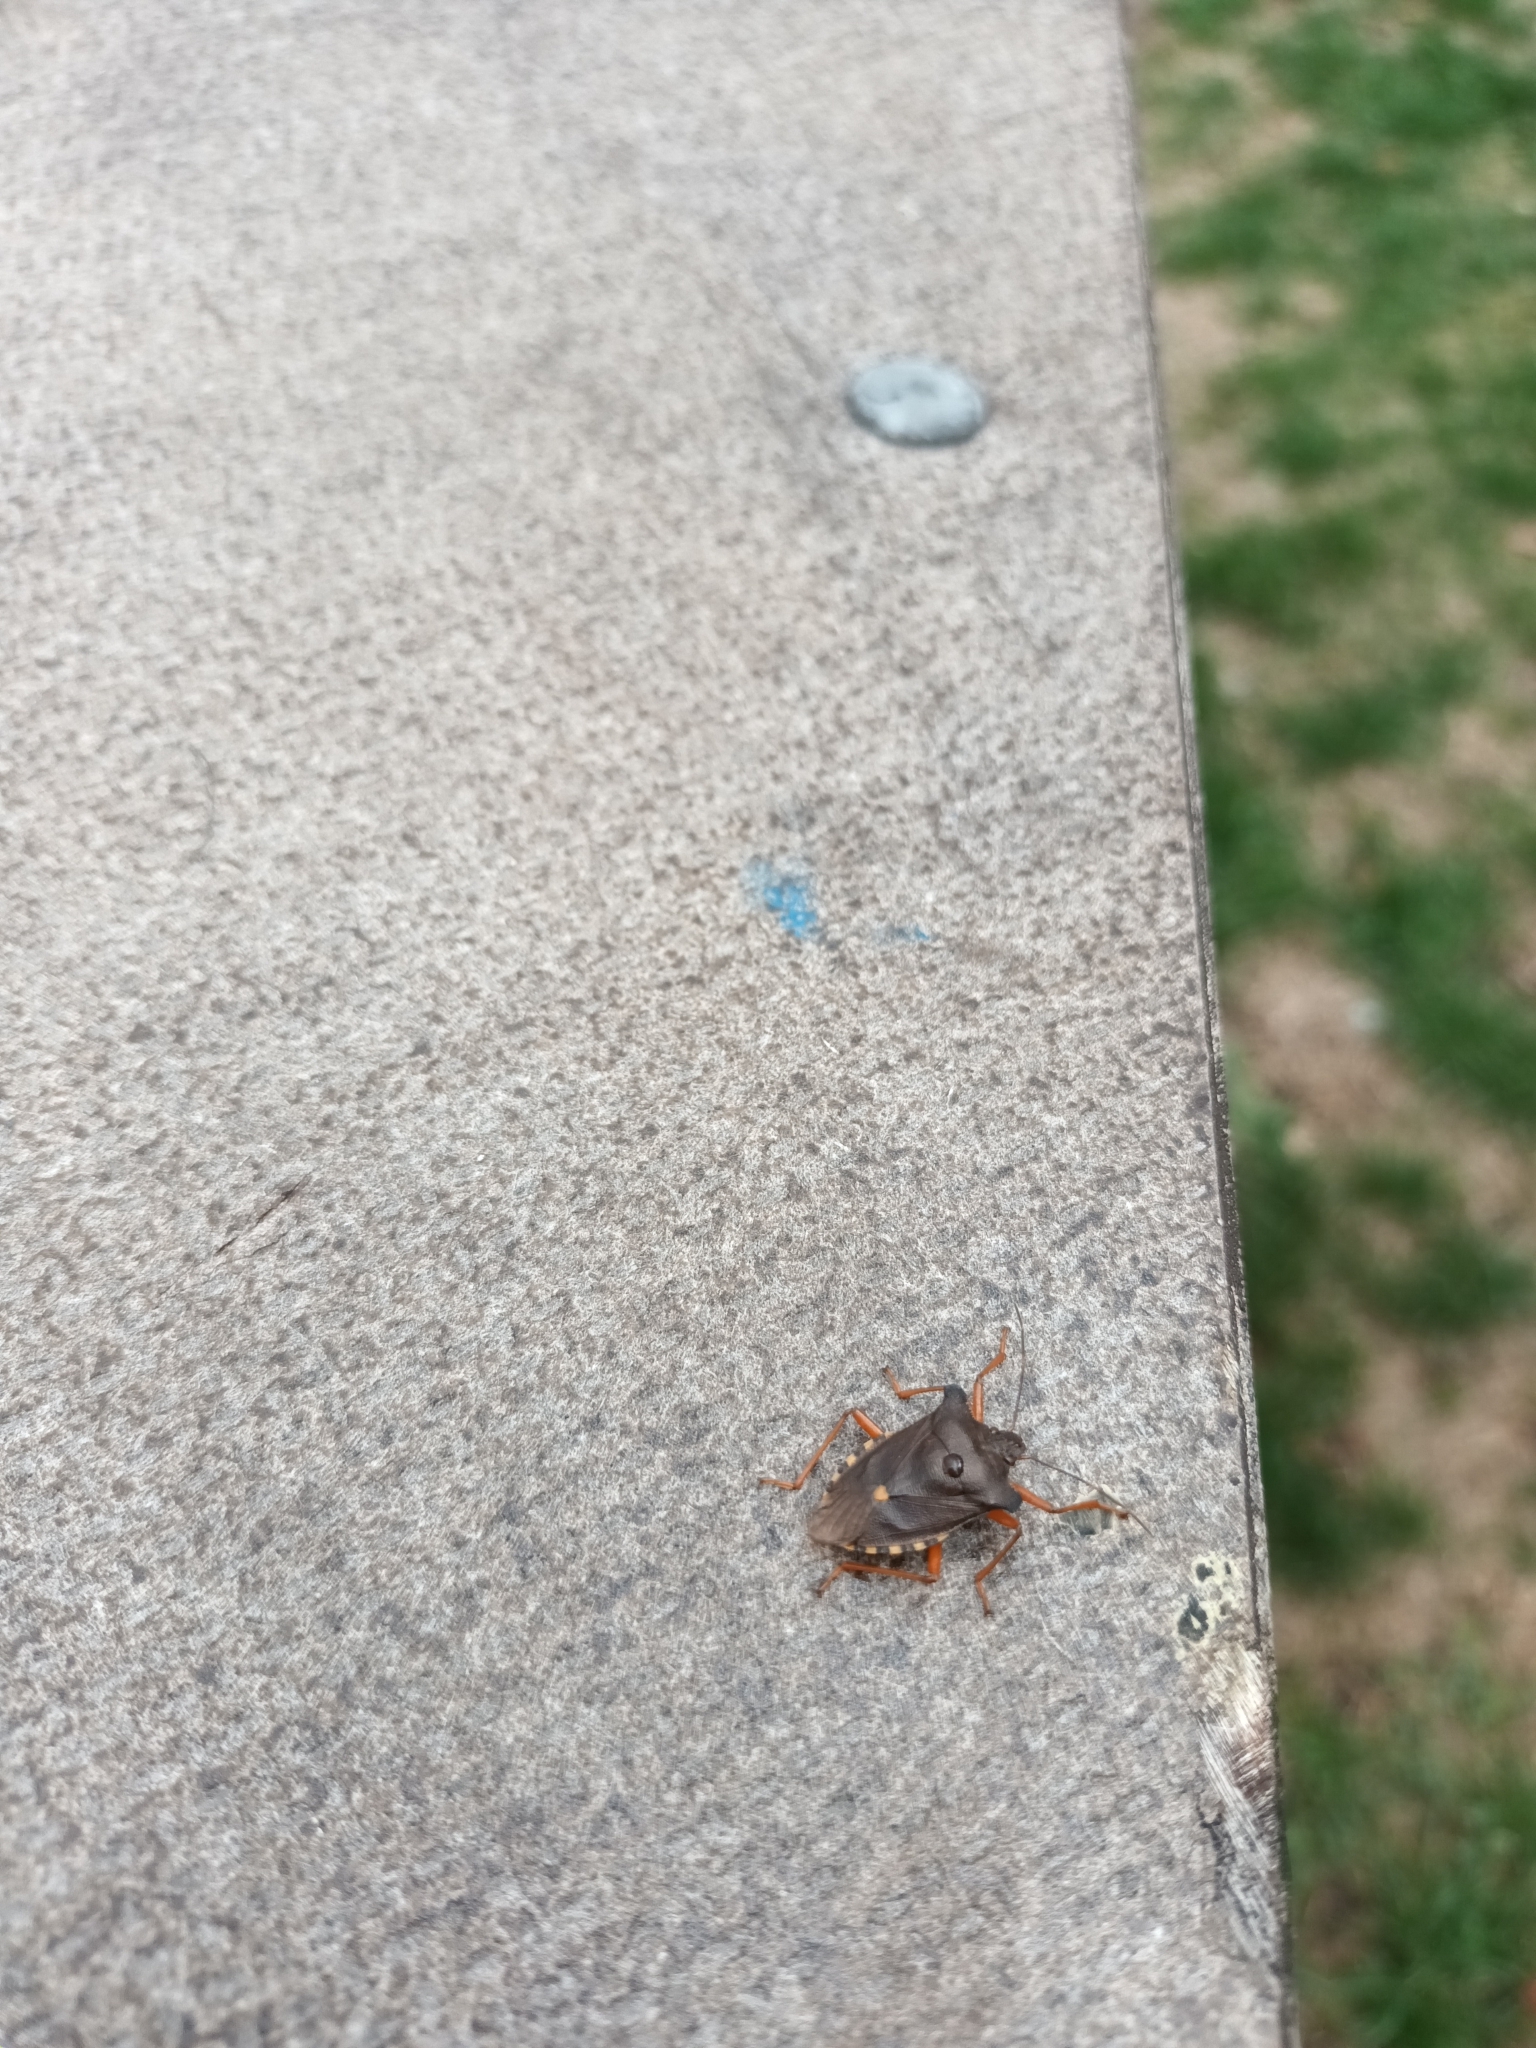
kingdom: Animalia
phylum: Arthropoda
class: Insecta
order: Hemiptera
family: Pentatomidae
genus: Pentatoma
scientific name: Pentatoma rufipes
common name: Forest bug
